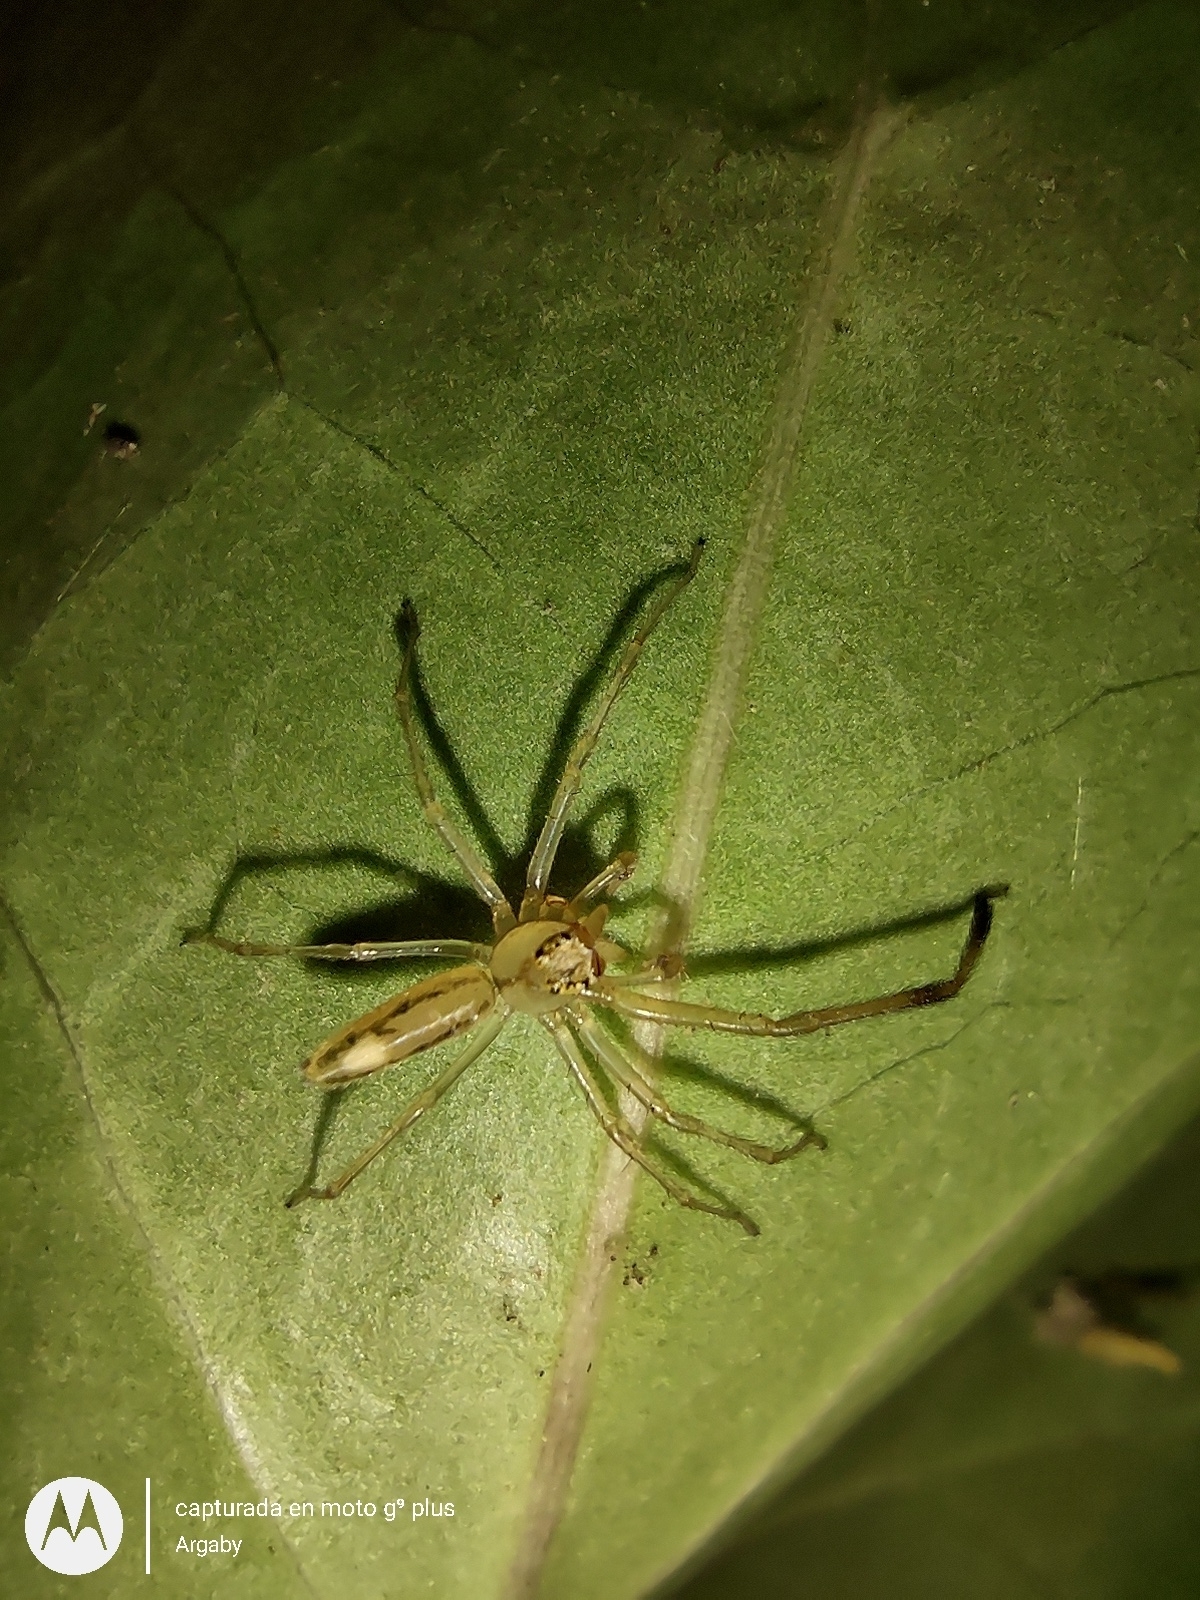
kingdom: Animalia
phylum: Arthropoda
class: Arachnida
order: Araneae
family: Salticidae
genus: Lyssomanes
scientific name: Lyssomanes pauper
